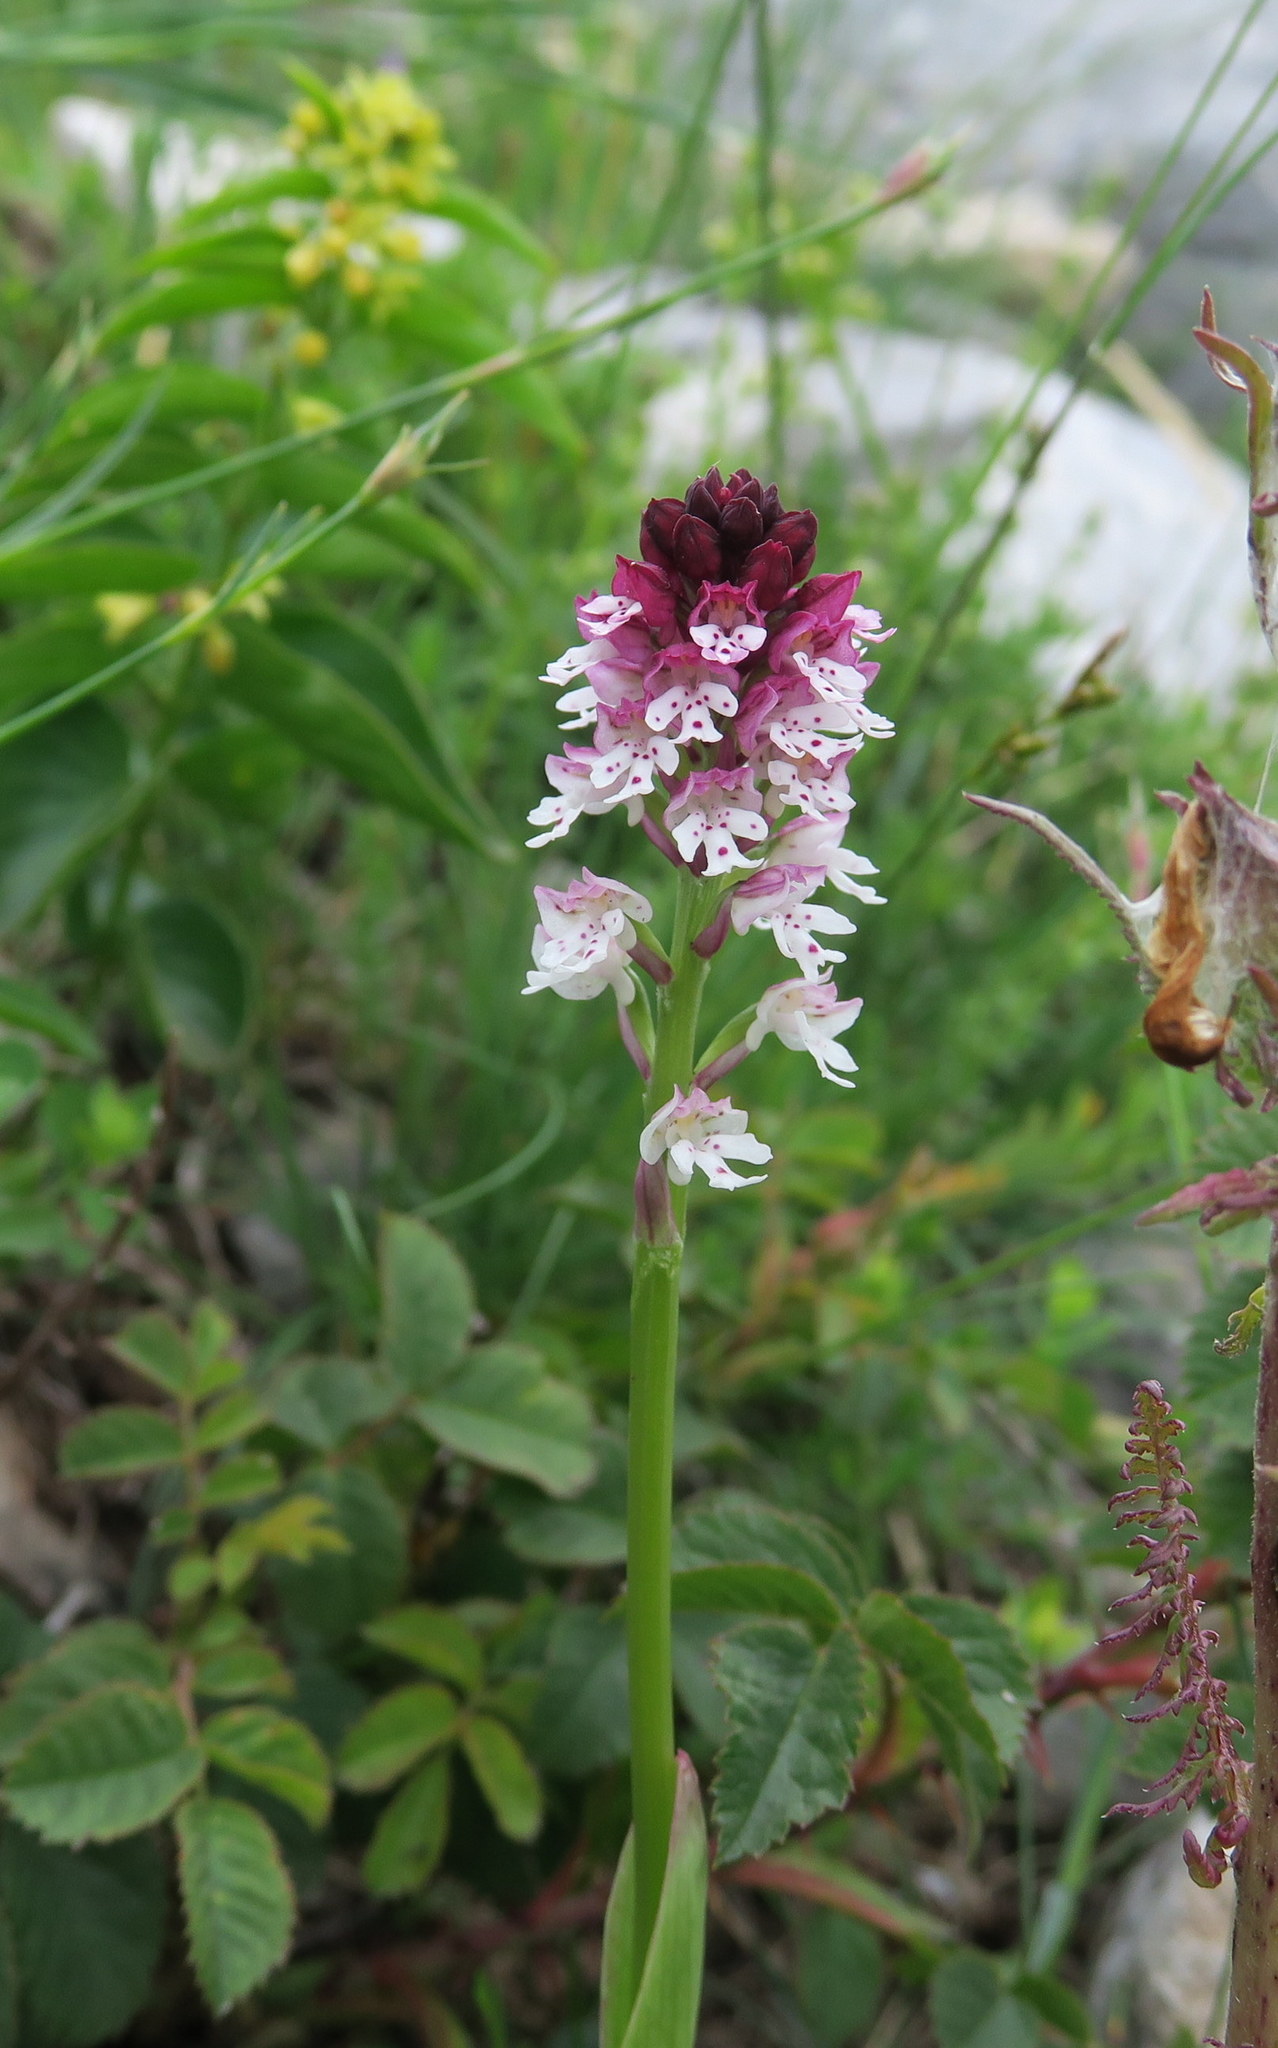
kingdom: Plantae
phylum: Tracheophyta
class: Liliopsida
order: Asparagales
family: Orchidaceae
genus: Neotinea
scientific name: Neotinea ustulata
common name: Burnt orchid
